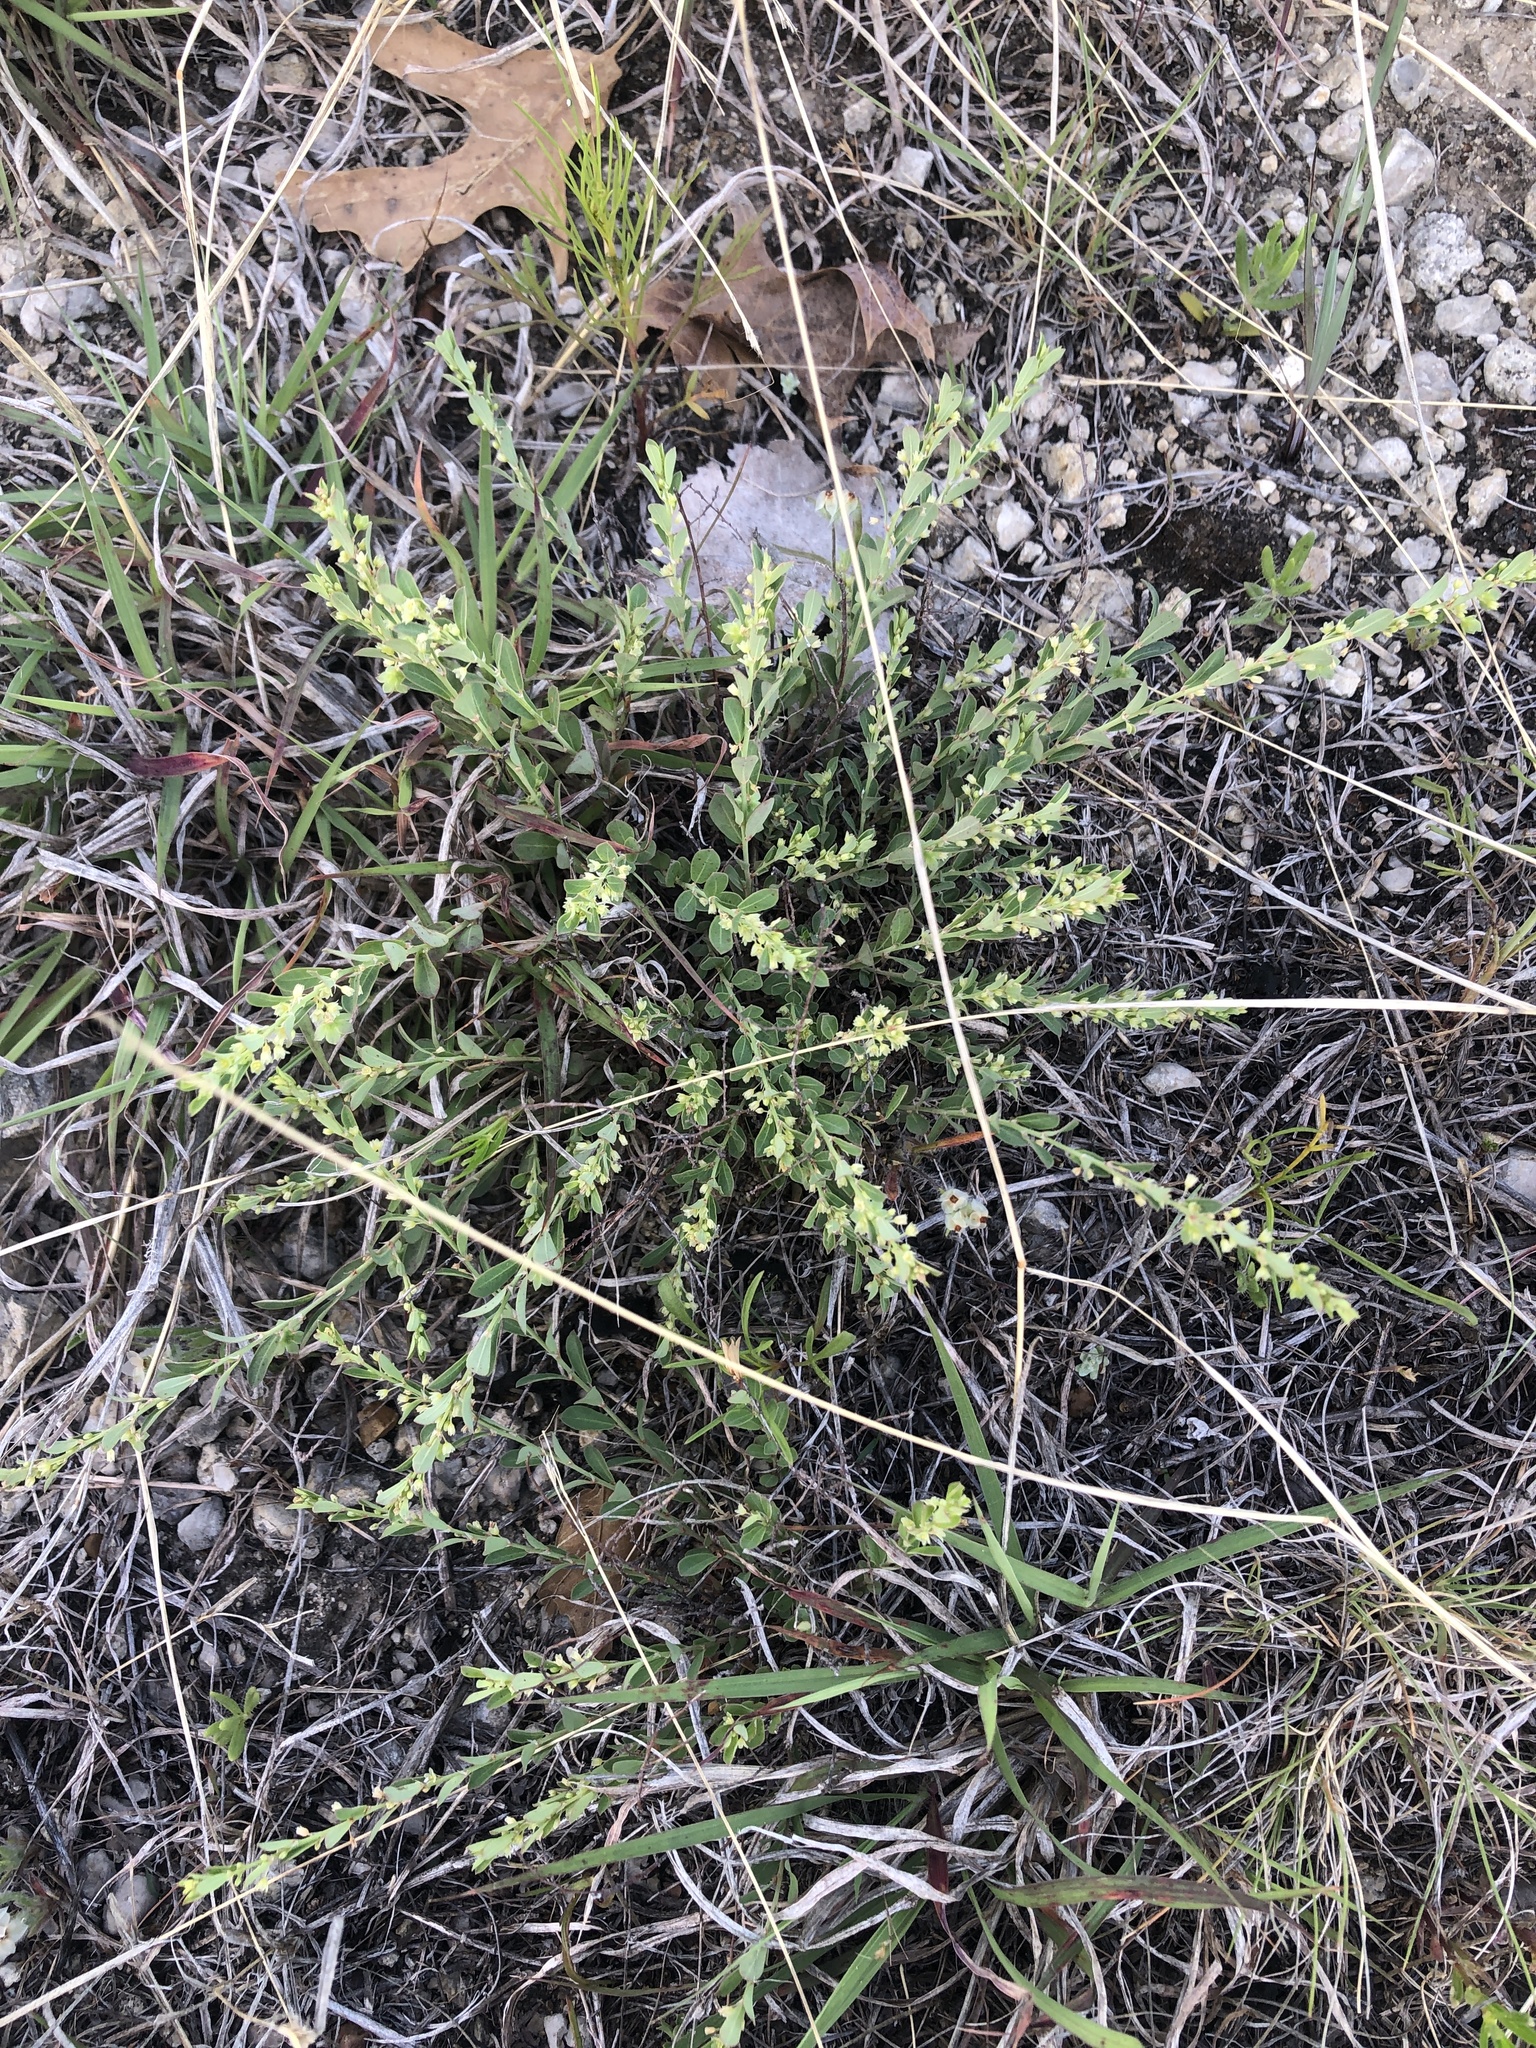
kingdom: Plantae
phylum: Tracheophyta
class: Magnoliopsida
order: Malpighiales
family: Phyllanthaceae
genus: Phyllanthus
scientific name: Phyllanthus polygonoides
